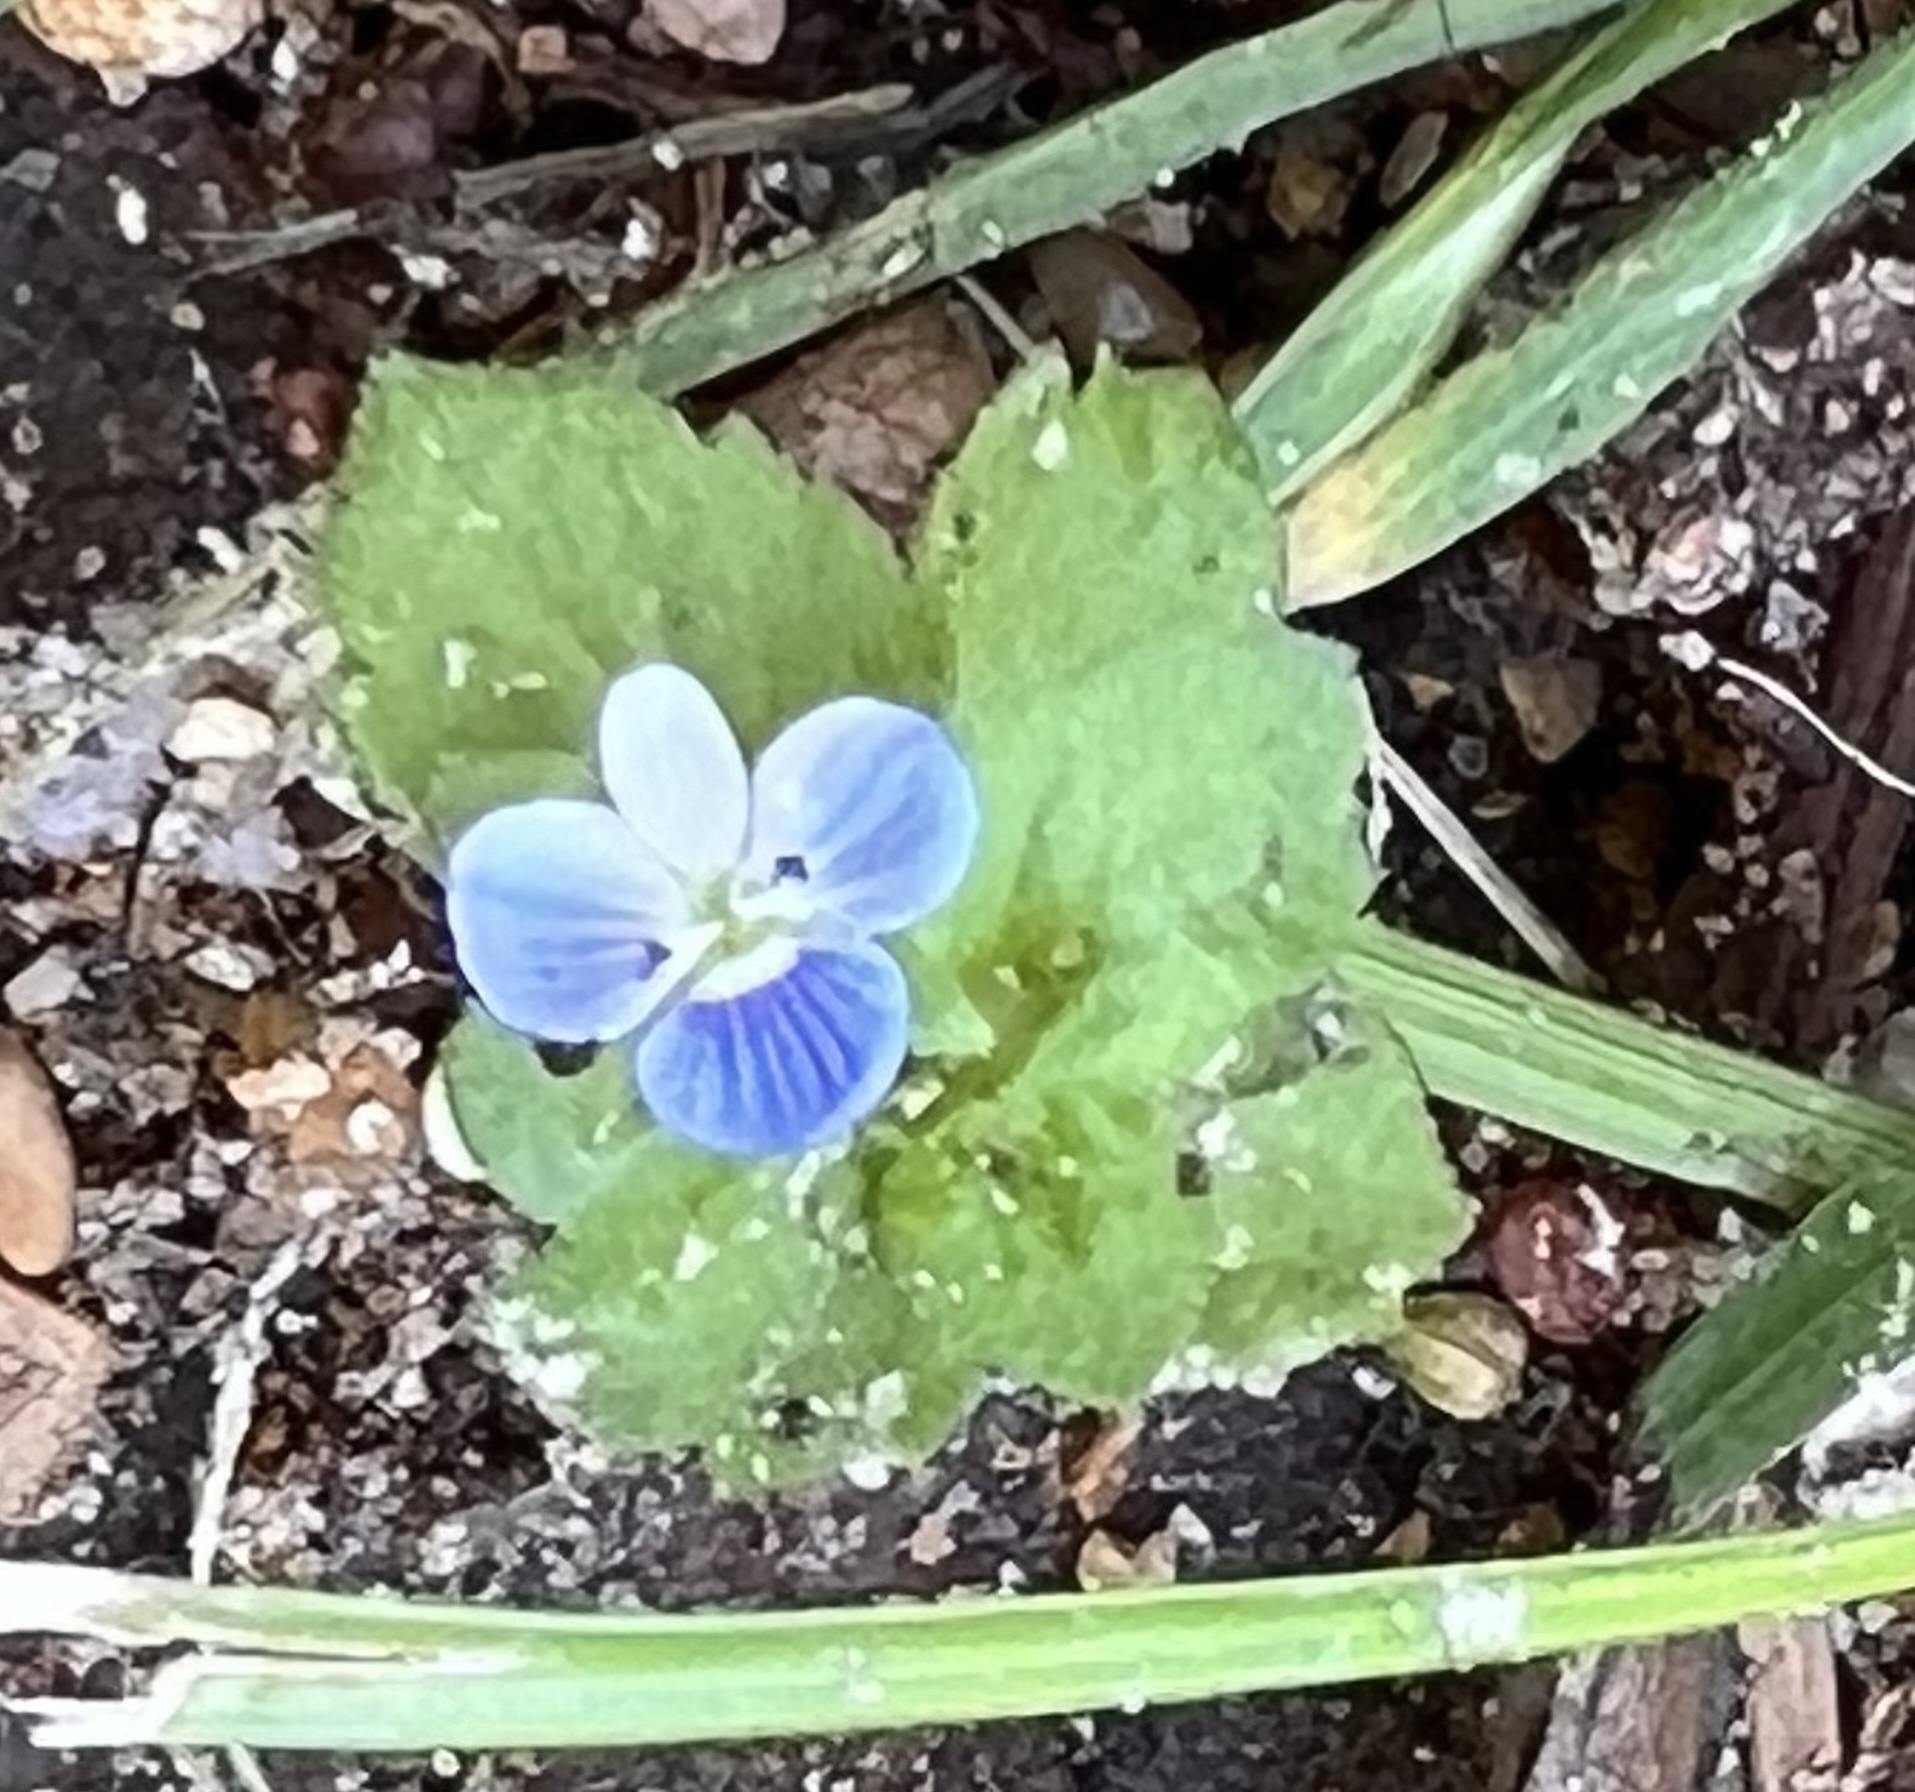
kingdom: Plantae
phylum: Tracheophyta
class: Magnoliopsida
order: Lamiales
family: Plantaginaceae
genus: Veronica
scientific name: Veronica persica
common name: Common field-speedwell
